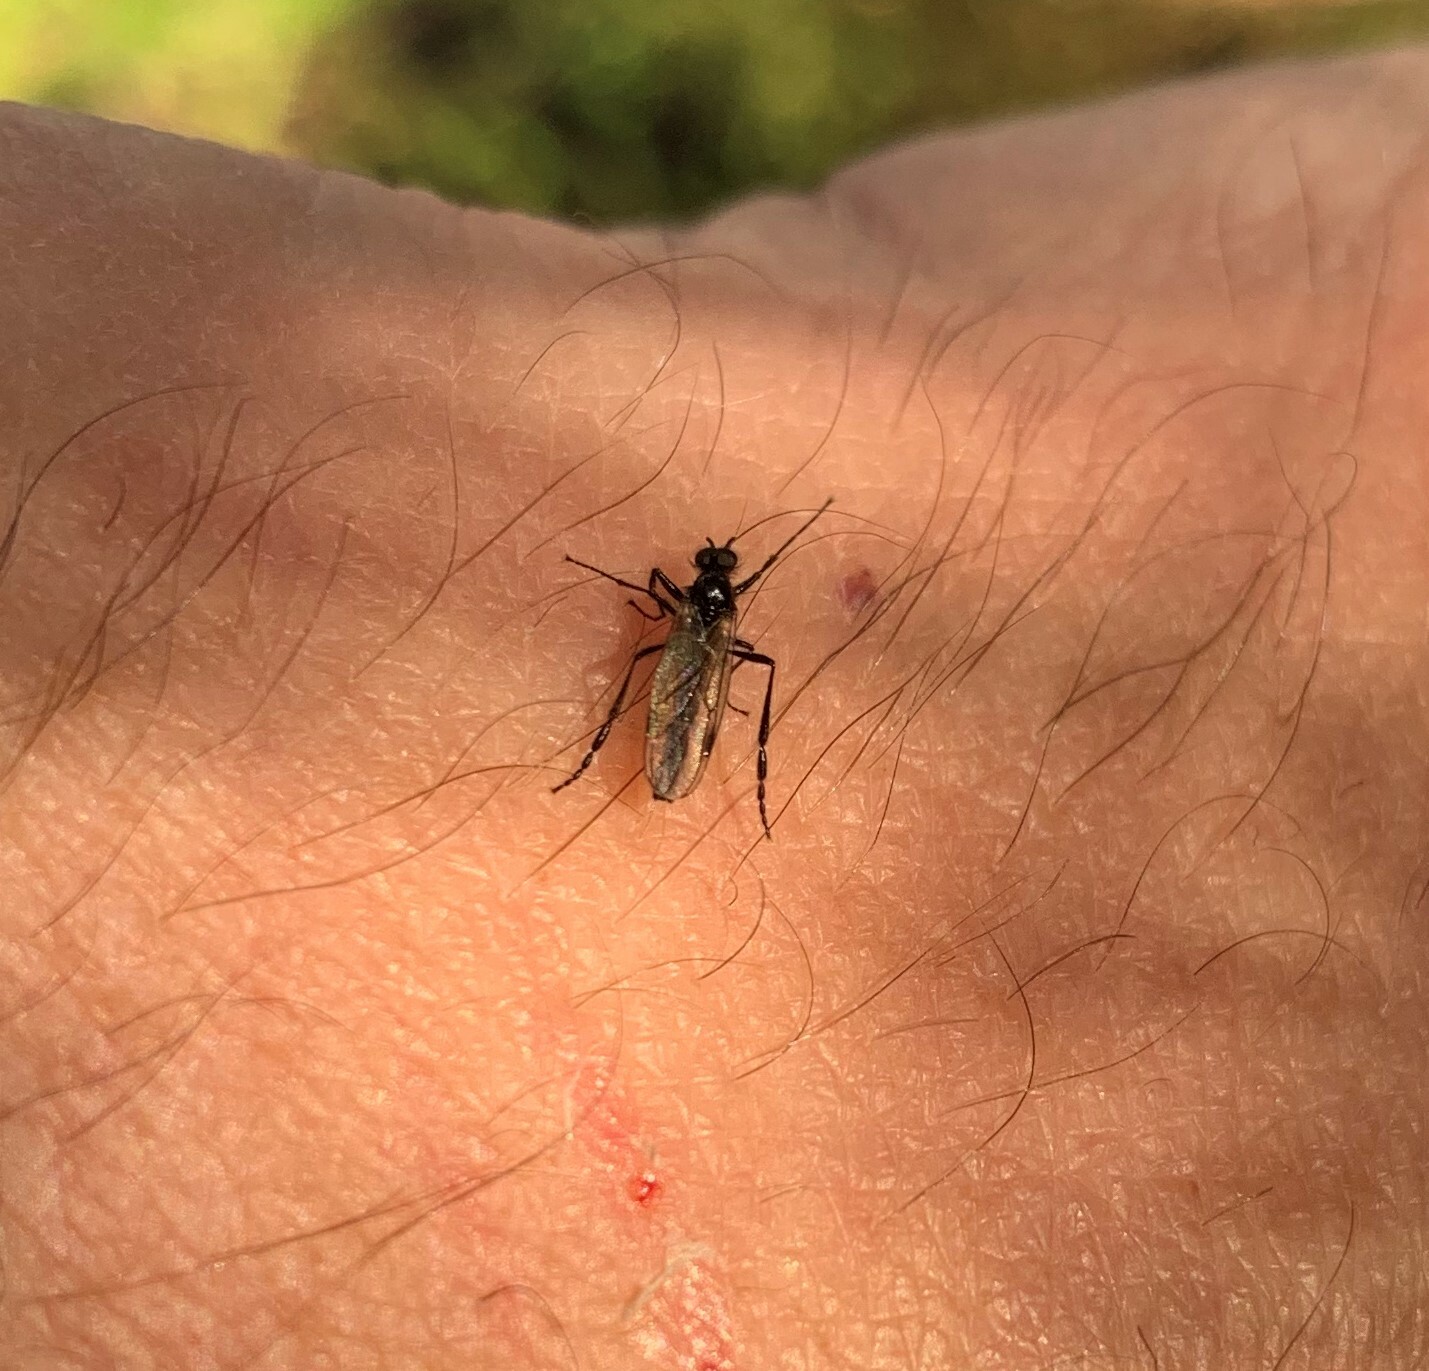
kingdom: Animalia
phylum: Arthropoda
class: Insecta
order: Diptera
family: Bibionidae
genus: Bibio
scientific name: Bibio
